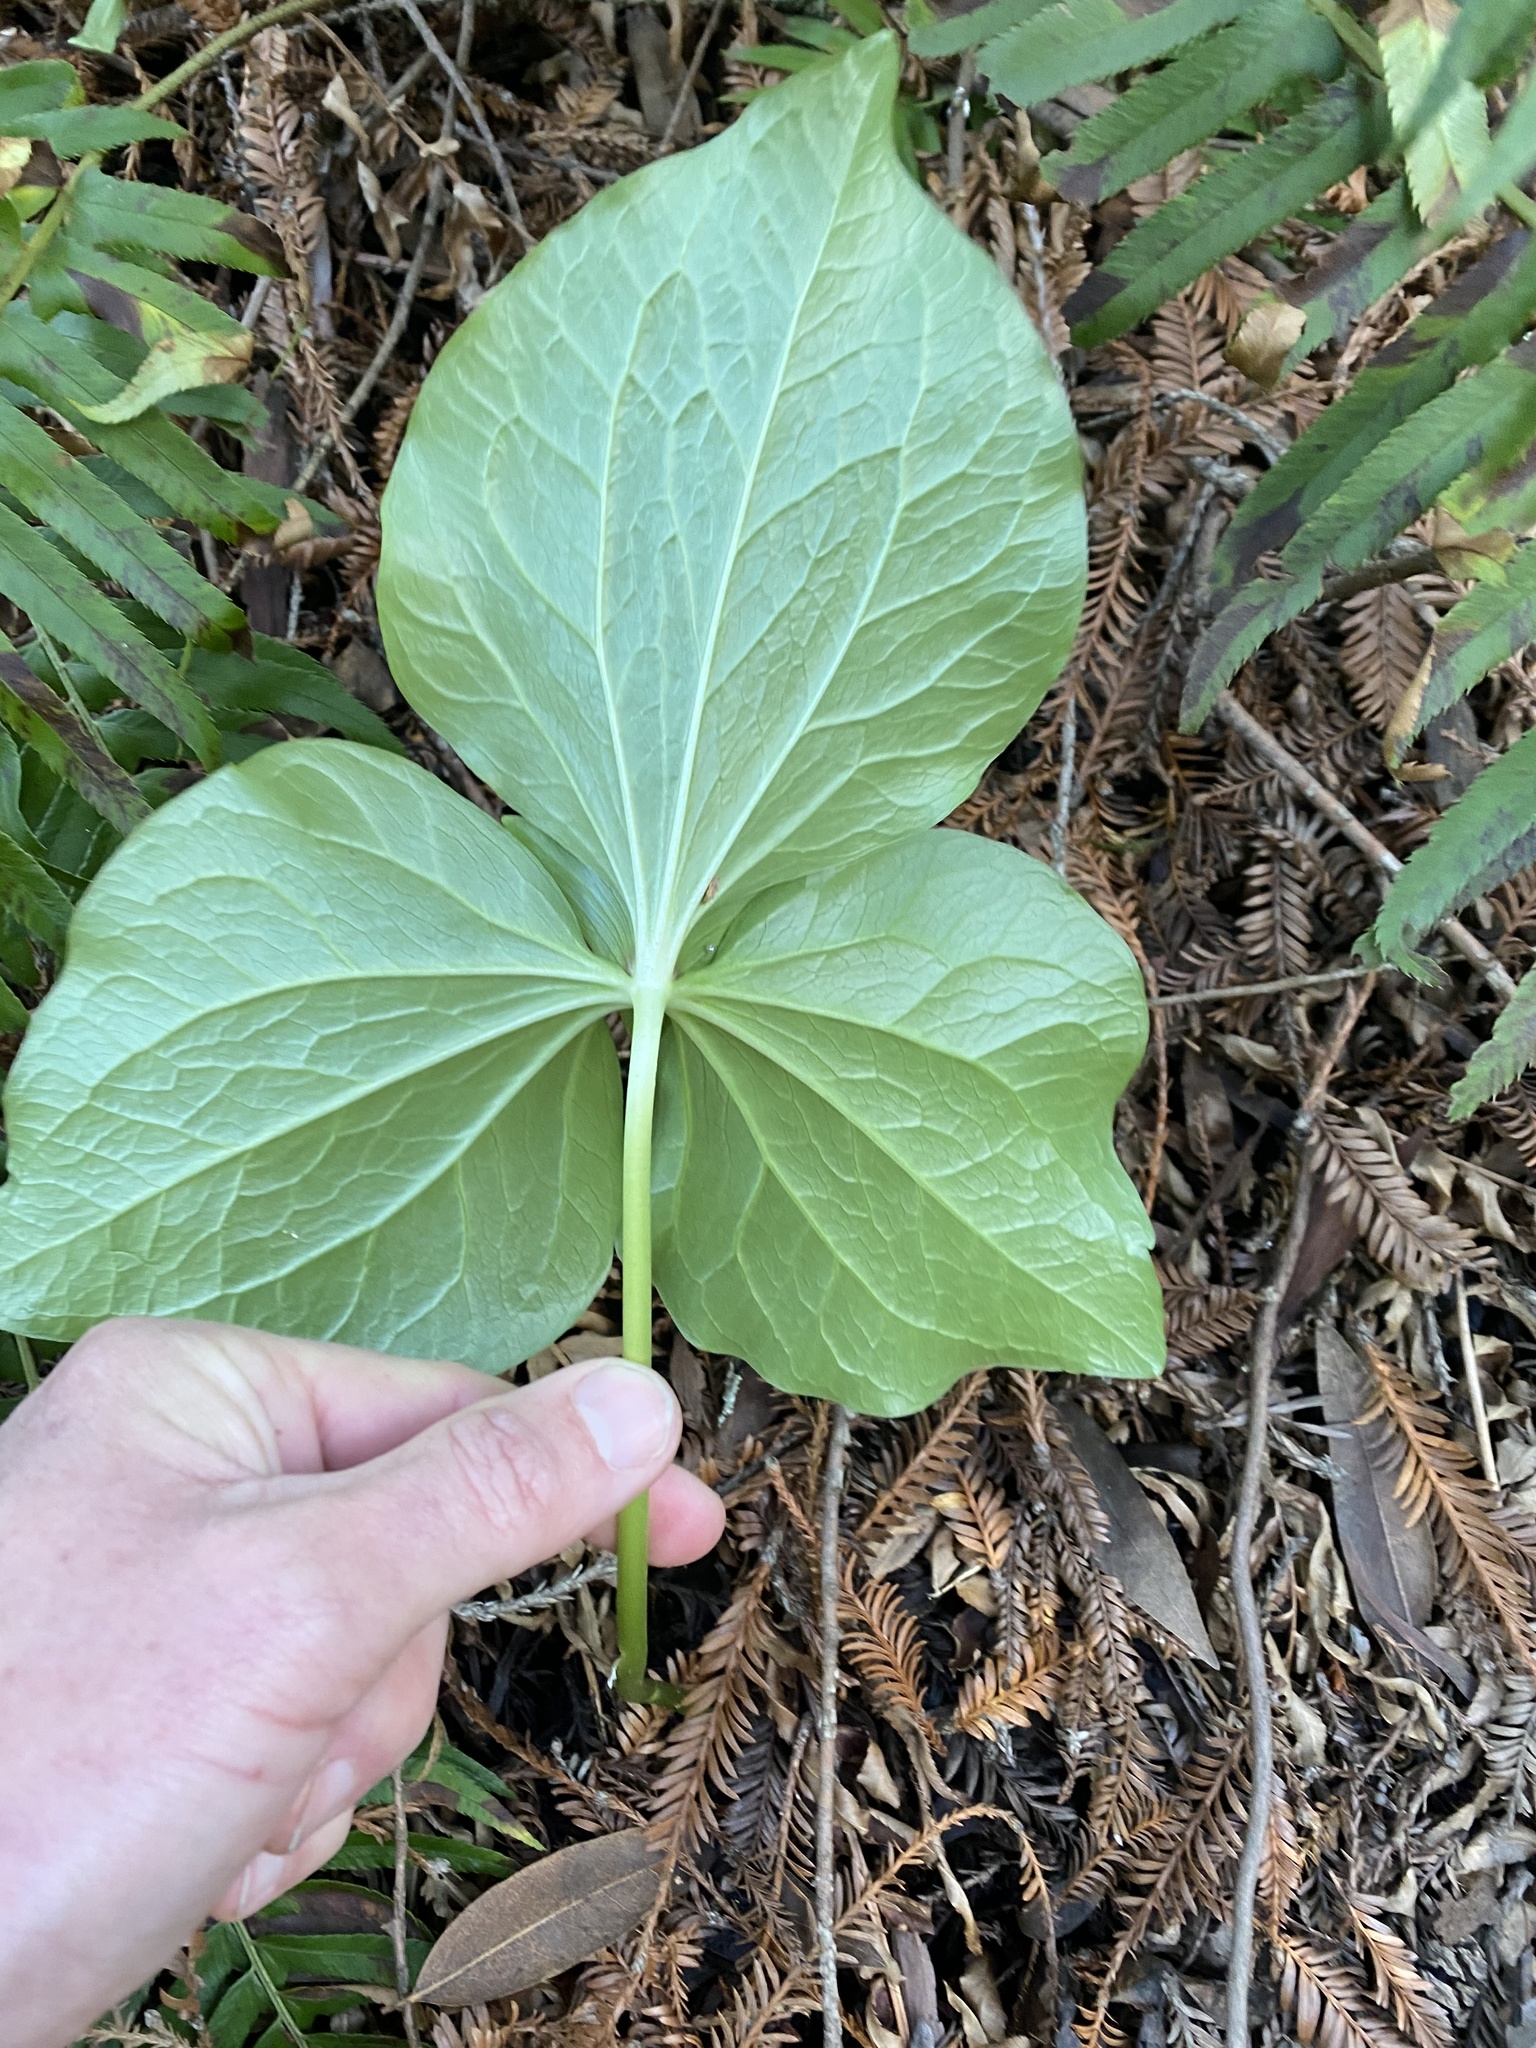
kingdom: Plantae
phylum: Tracheophyta
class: Liliopsida
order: Liliales
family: Melanthiaceae
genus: Trillium
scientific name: Trillium chloropetalum
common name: Giant trillium
